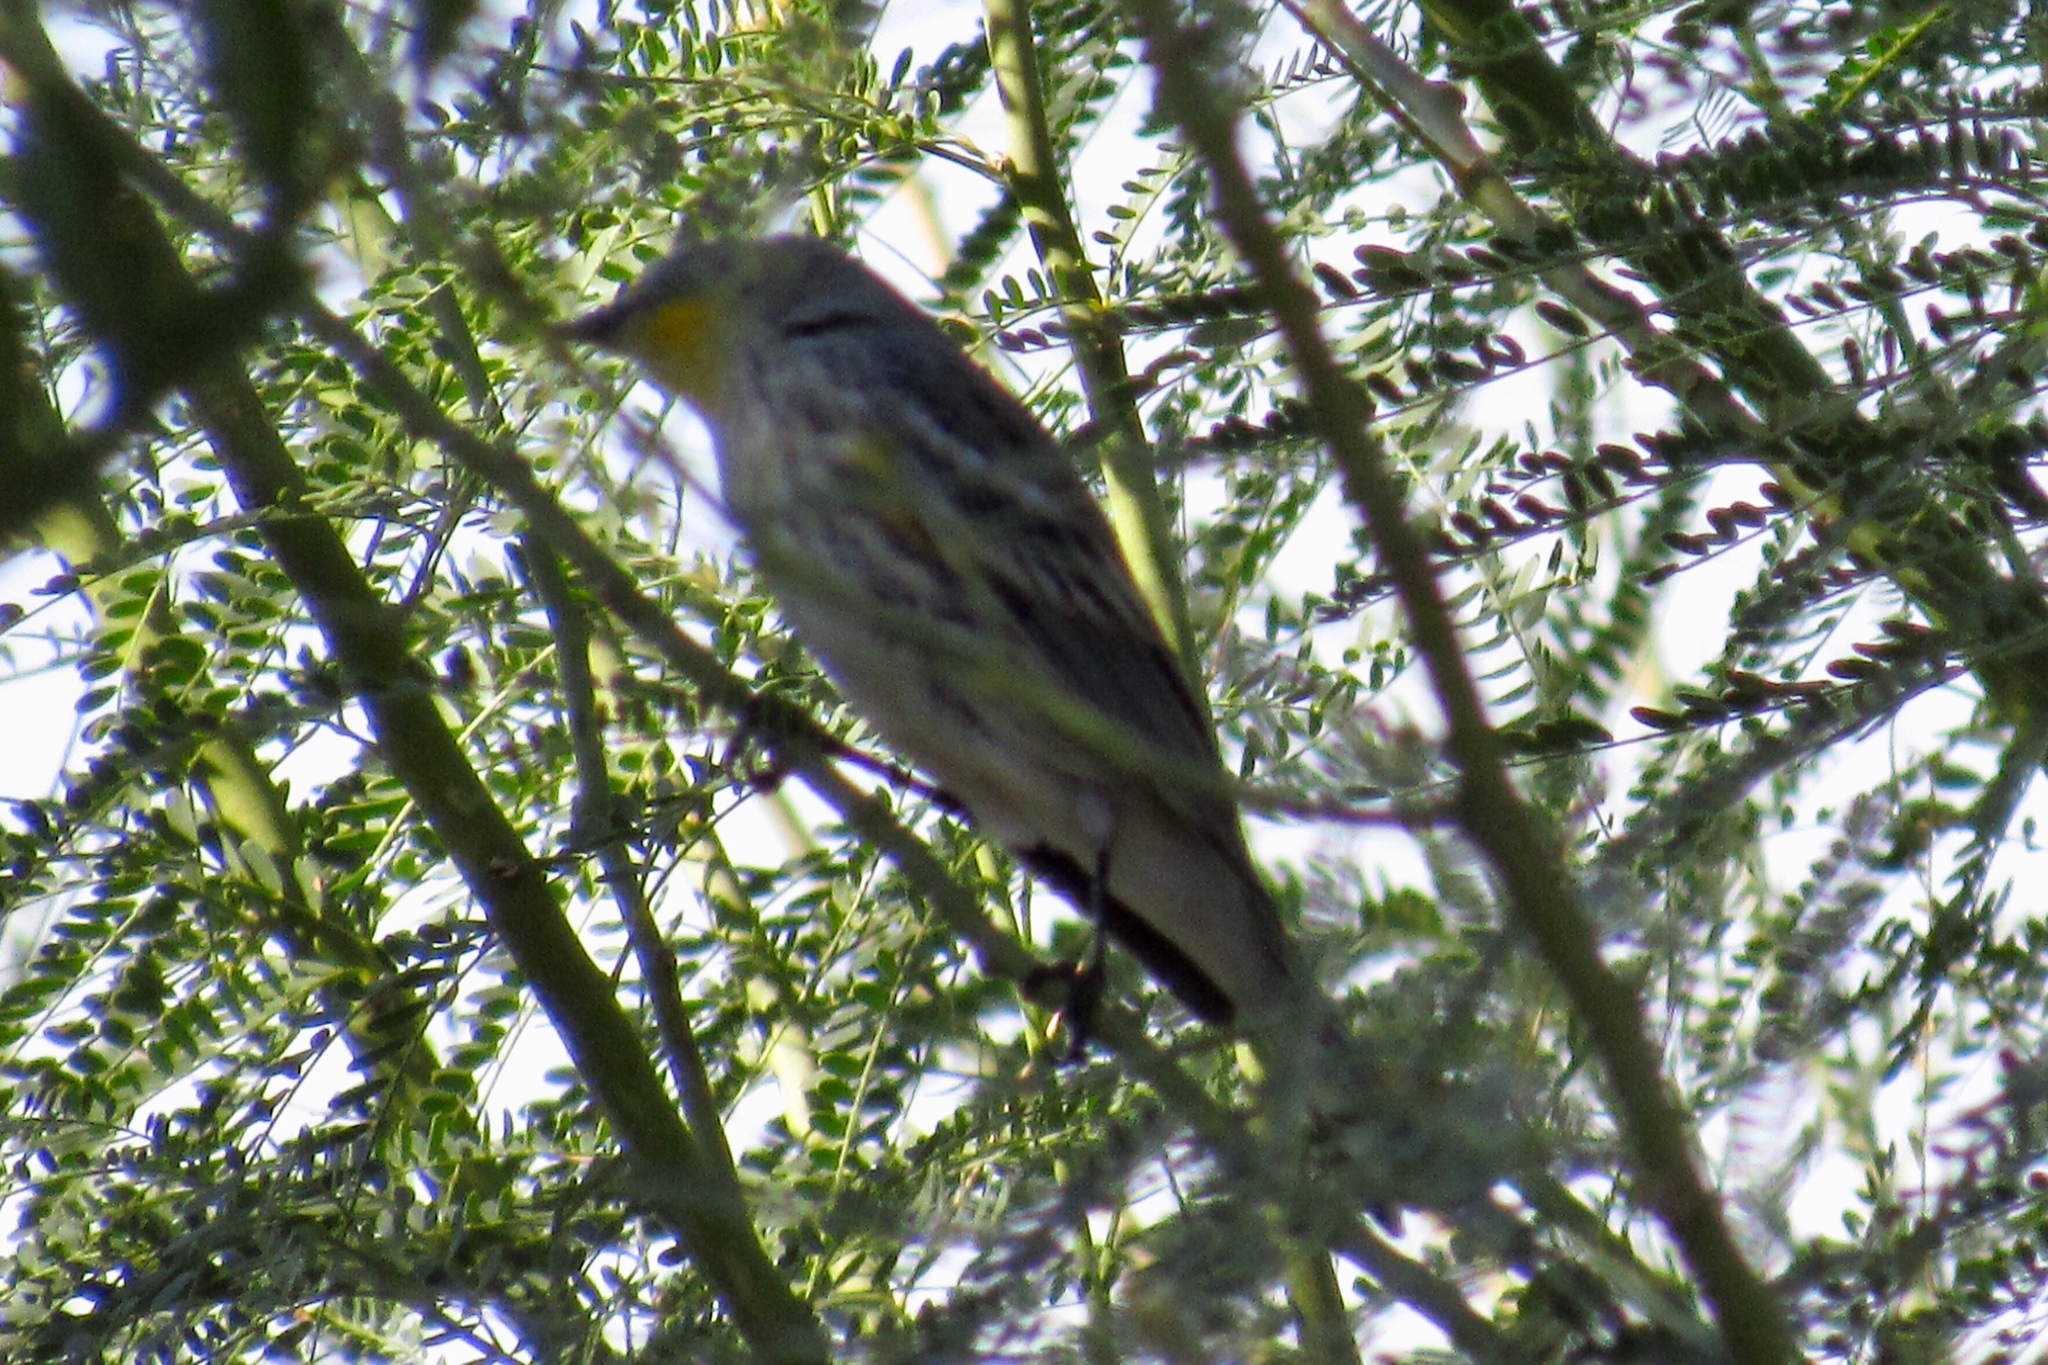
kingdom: Animalia
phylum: Chordata
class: Aves
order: Passeriformes
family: Parulidae
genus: Setophaga
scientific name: Setophaga auduboni
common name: Audubon's warbler
